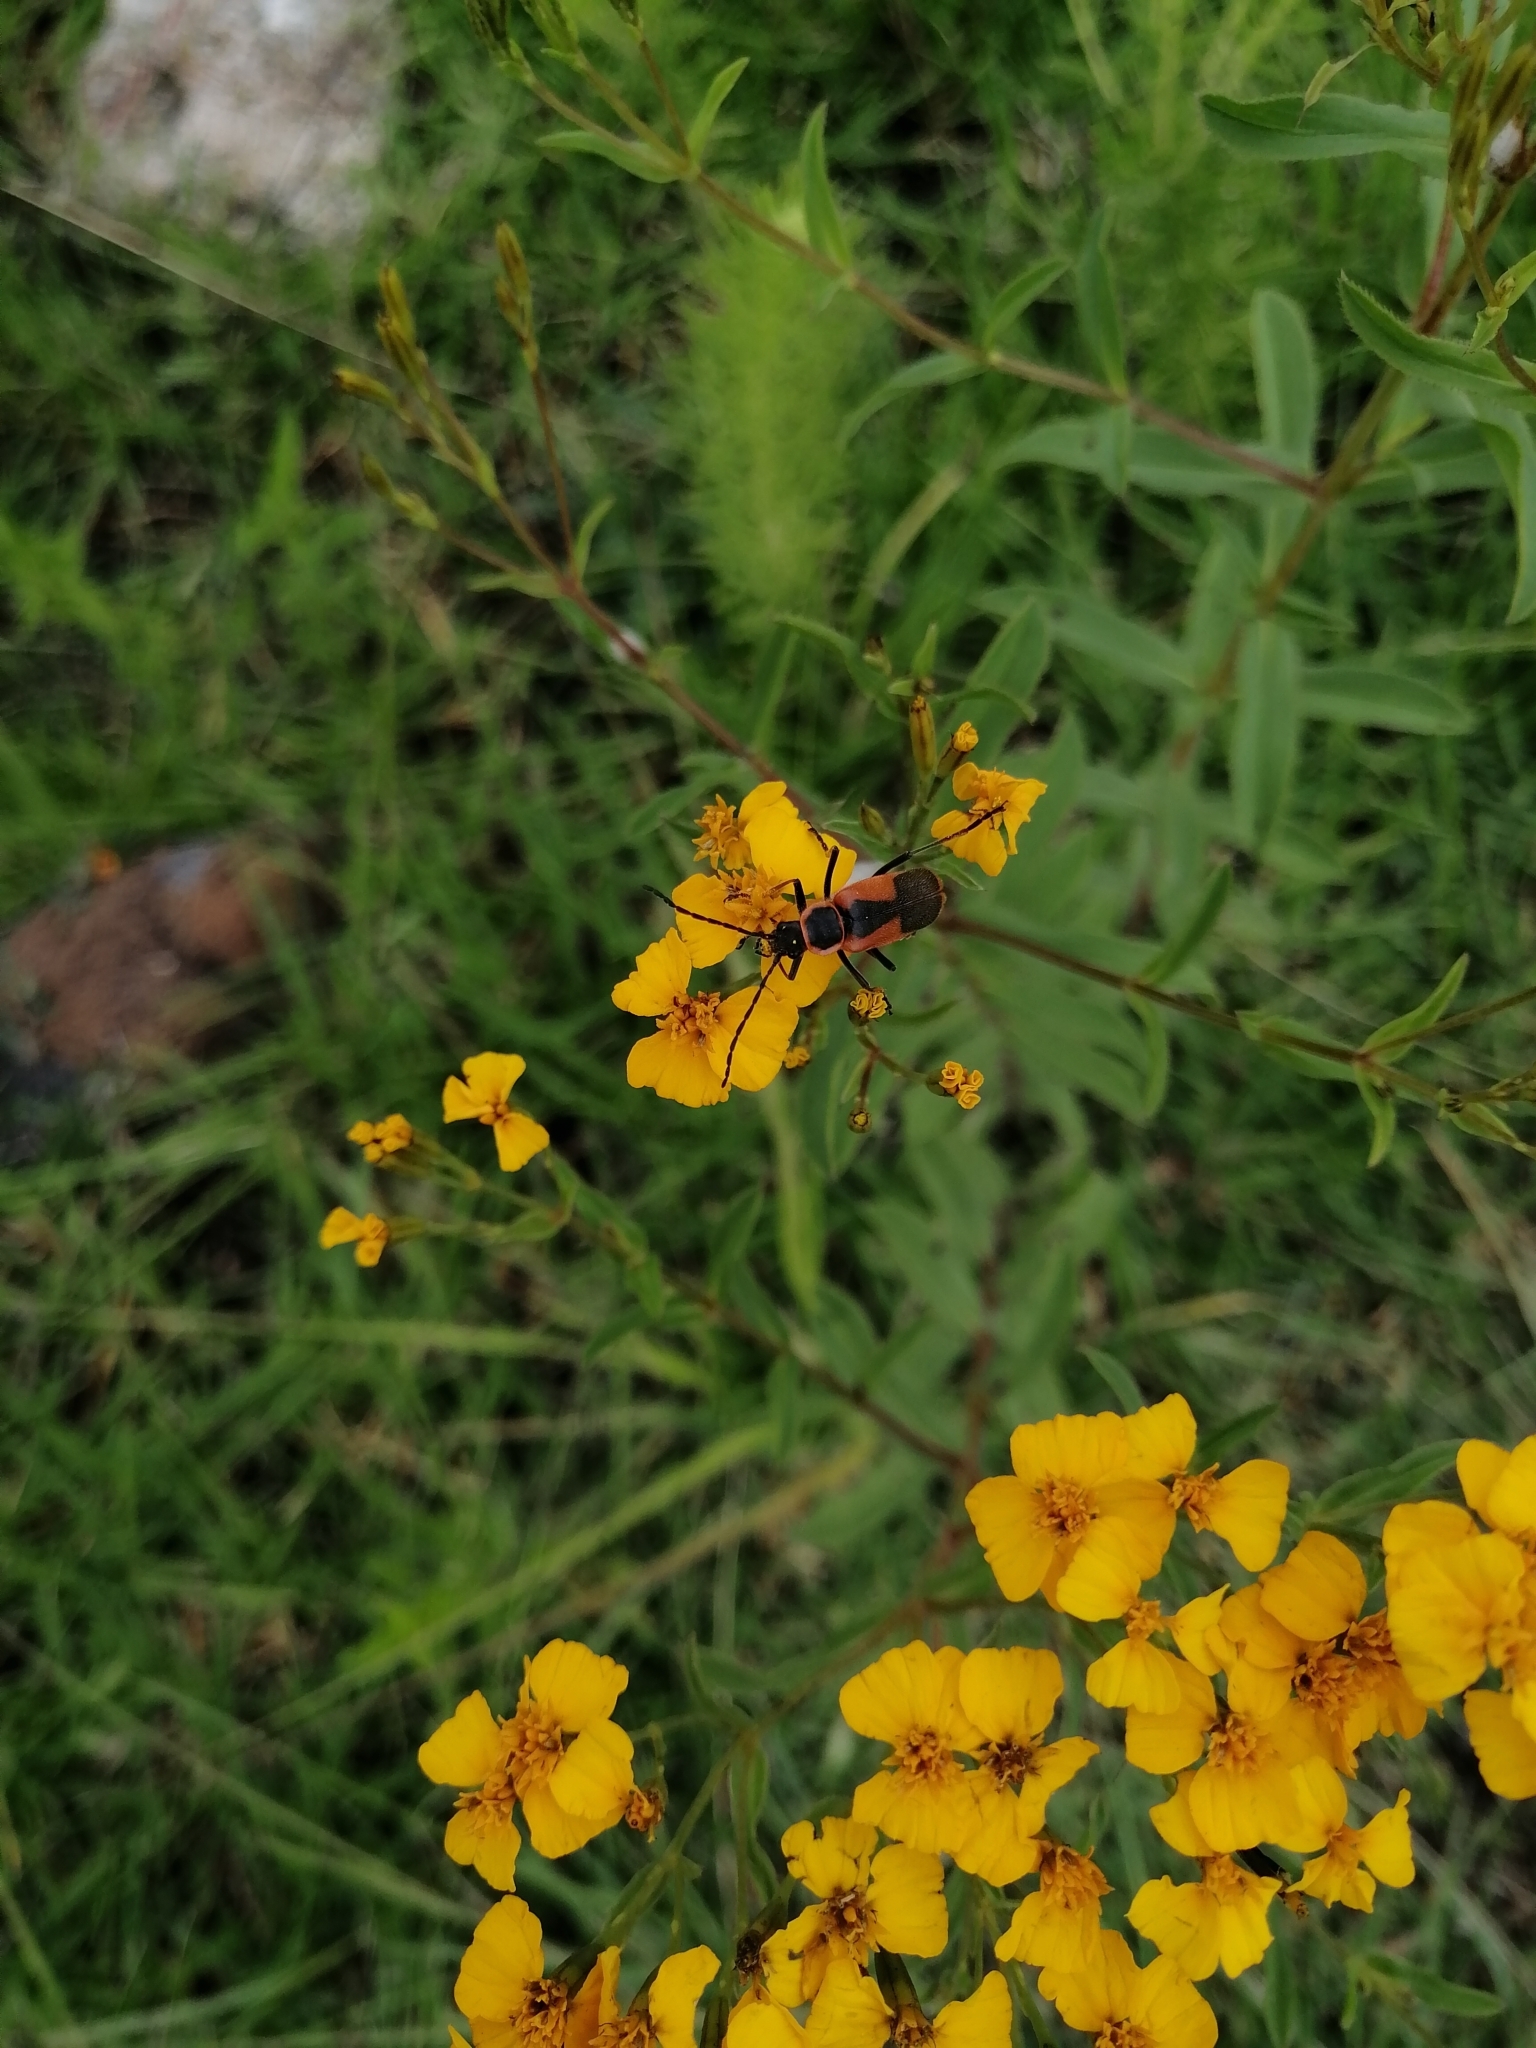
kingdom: Animalia
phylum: Arthropoda
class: Insecta
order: Coleoptera
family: Cantharidae
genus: Chauliognathus
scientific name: Chauliognathus limbicollis
